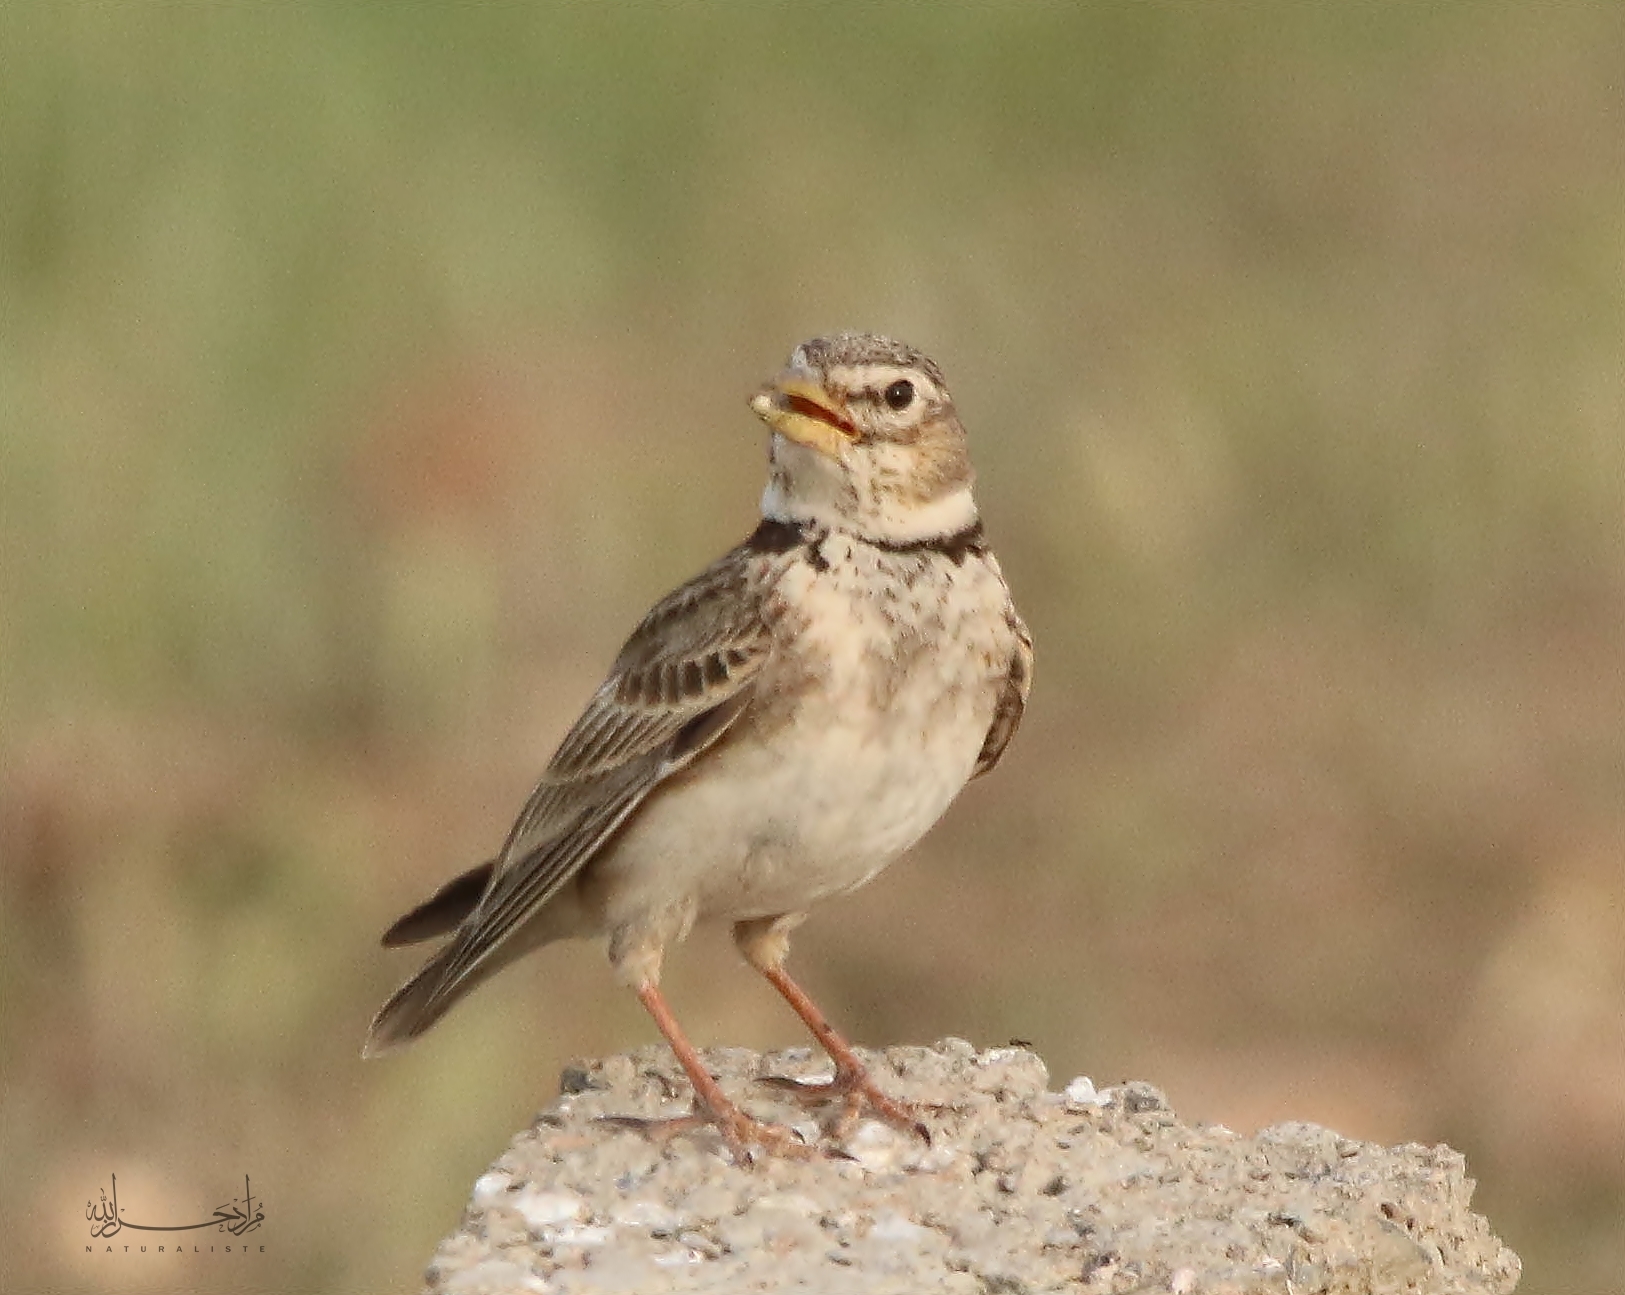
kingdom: Animalia
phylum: Chordata
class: Aves
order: Passeriformes
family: Alaudidae
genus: Melanocorypha
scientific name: Melanocorypha calandra
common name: Calandra lark
